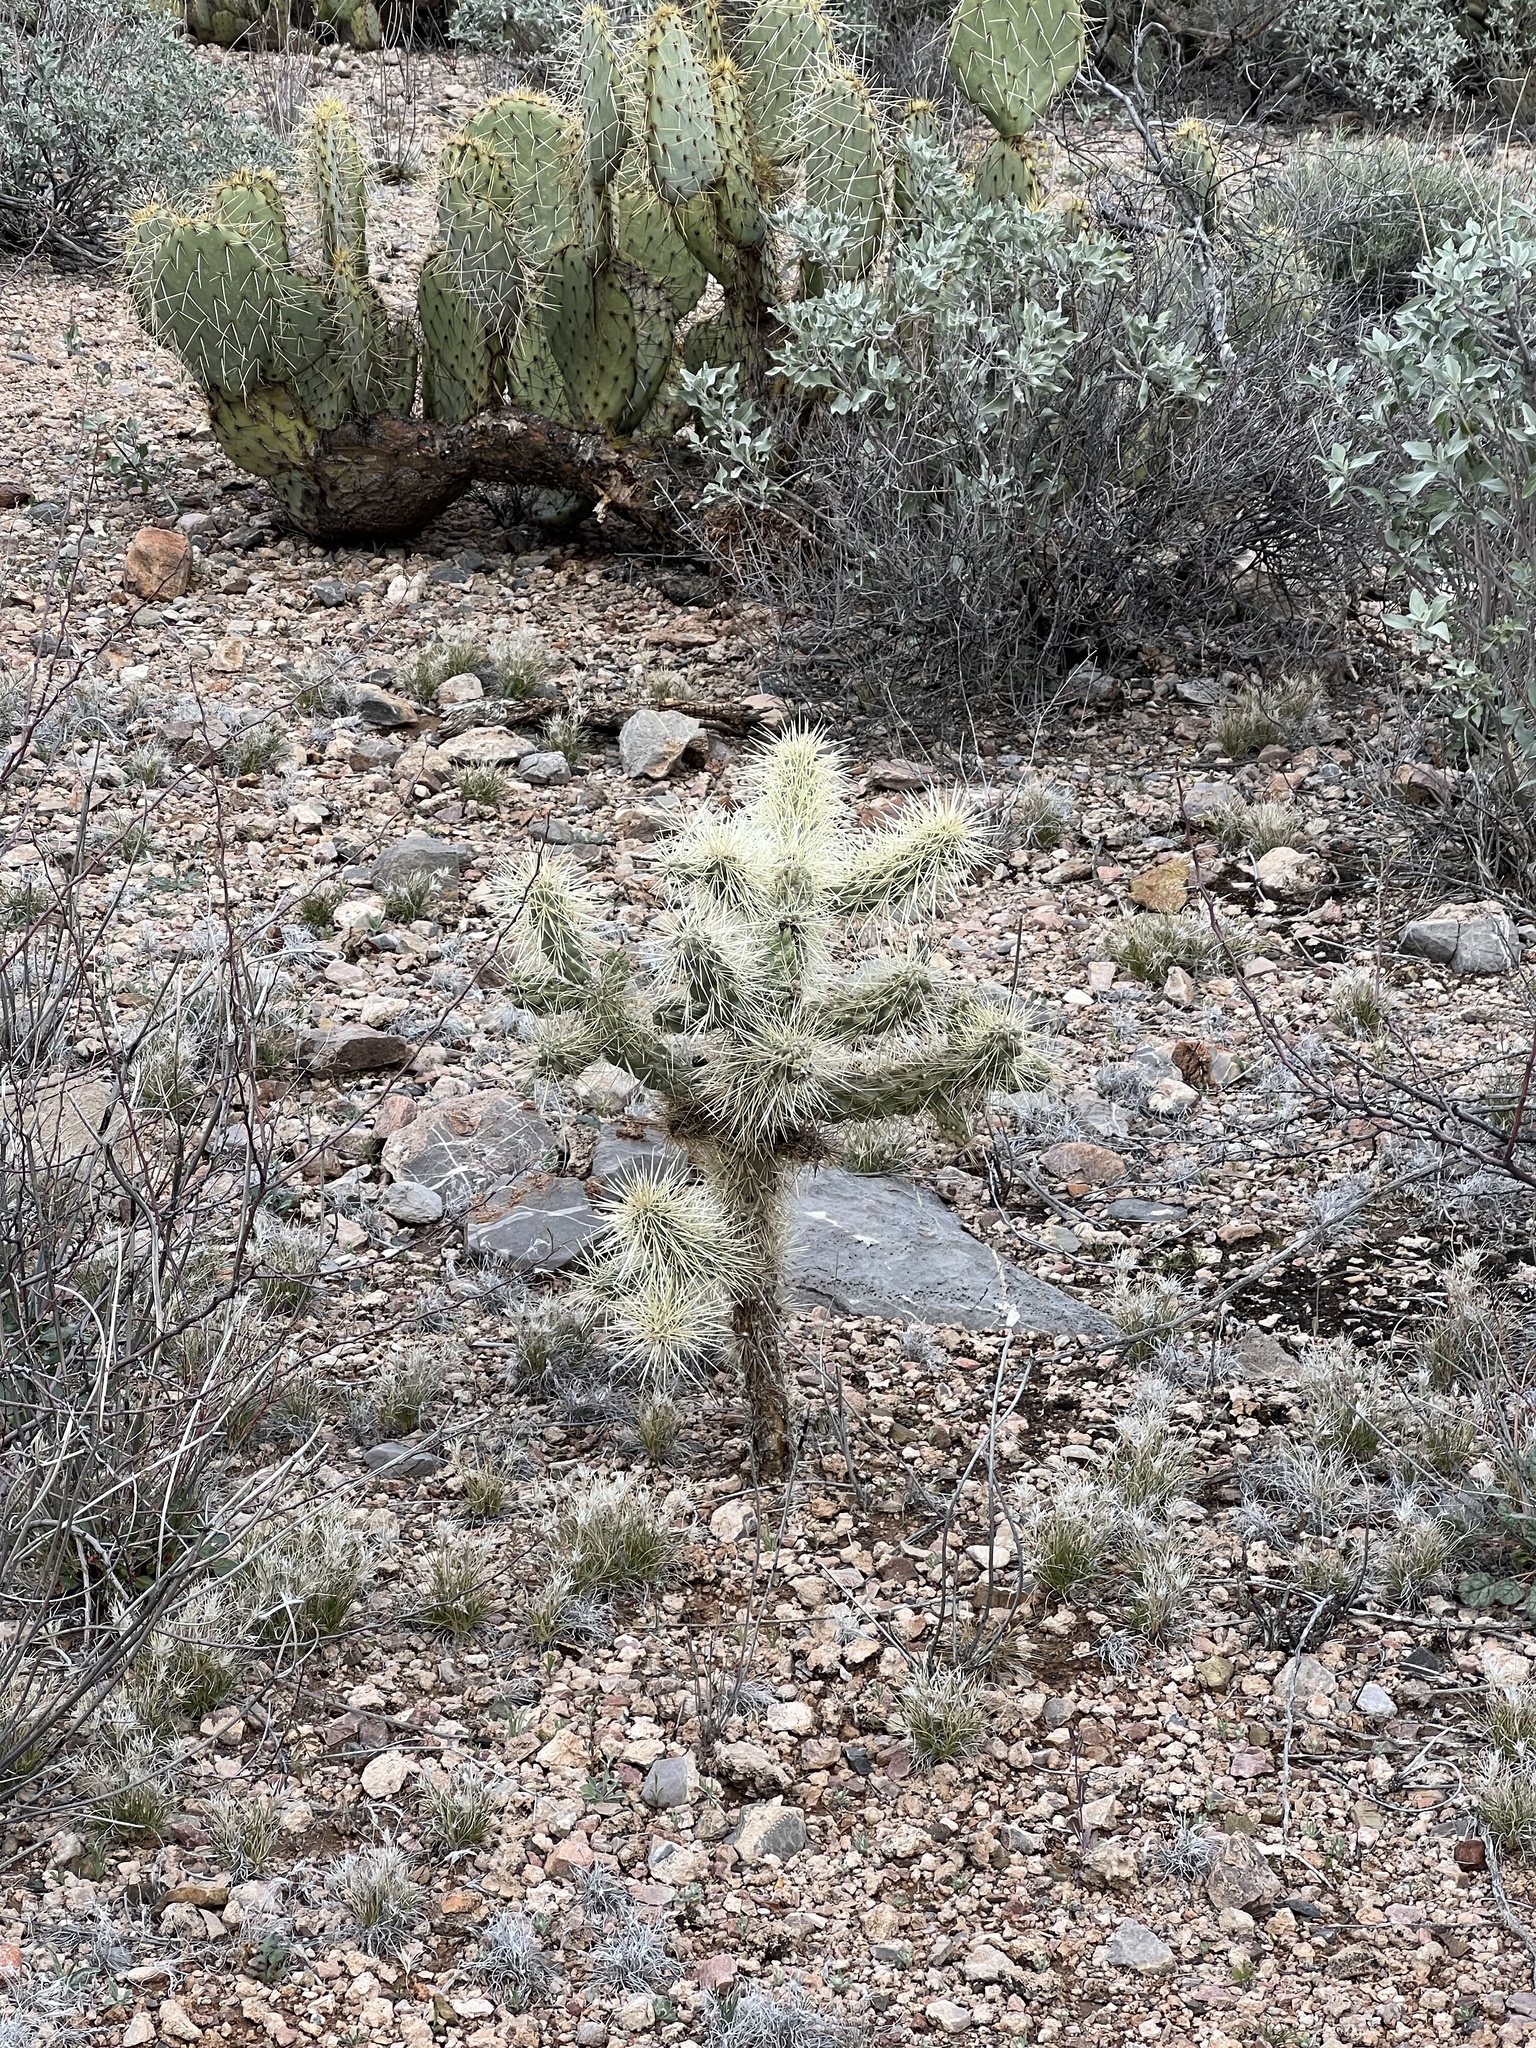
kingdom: Plantae
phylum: Tracheophyta
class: Magnoliopsida
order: Caryophyllales
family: Cactaceae
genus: Cylindropuntia
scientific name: Cylindropuntia fulgida
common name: Jumping cholla
